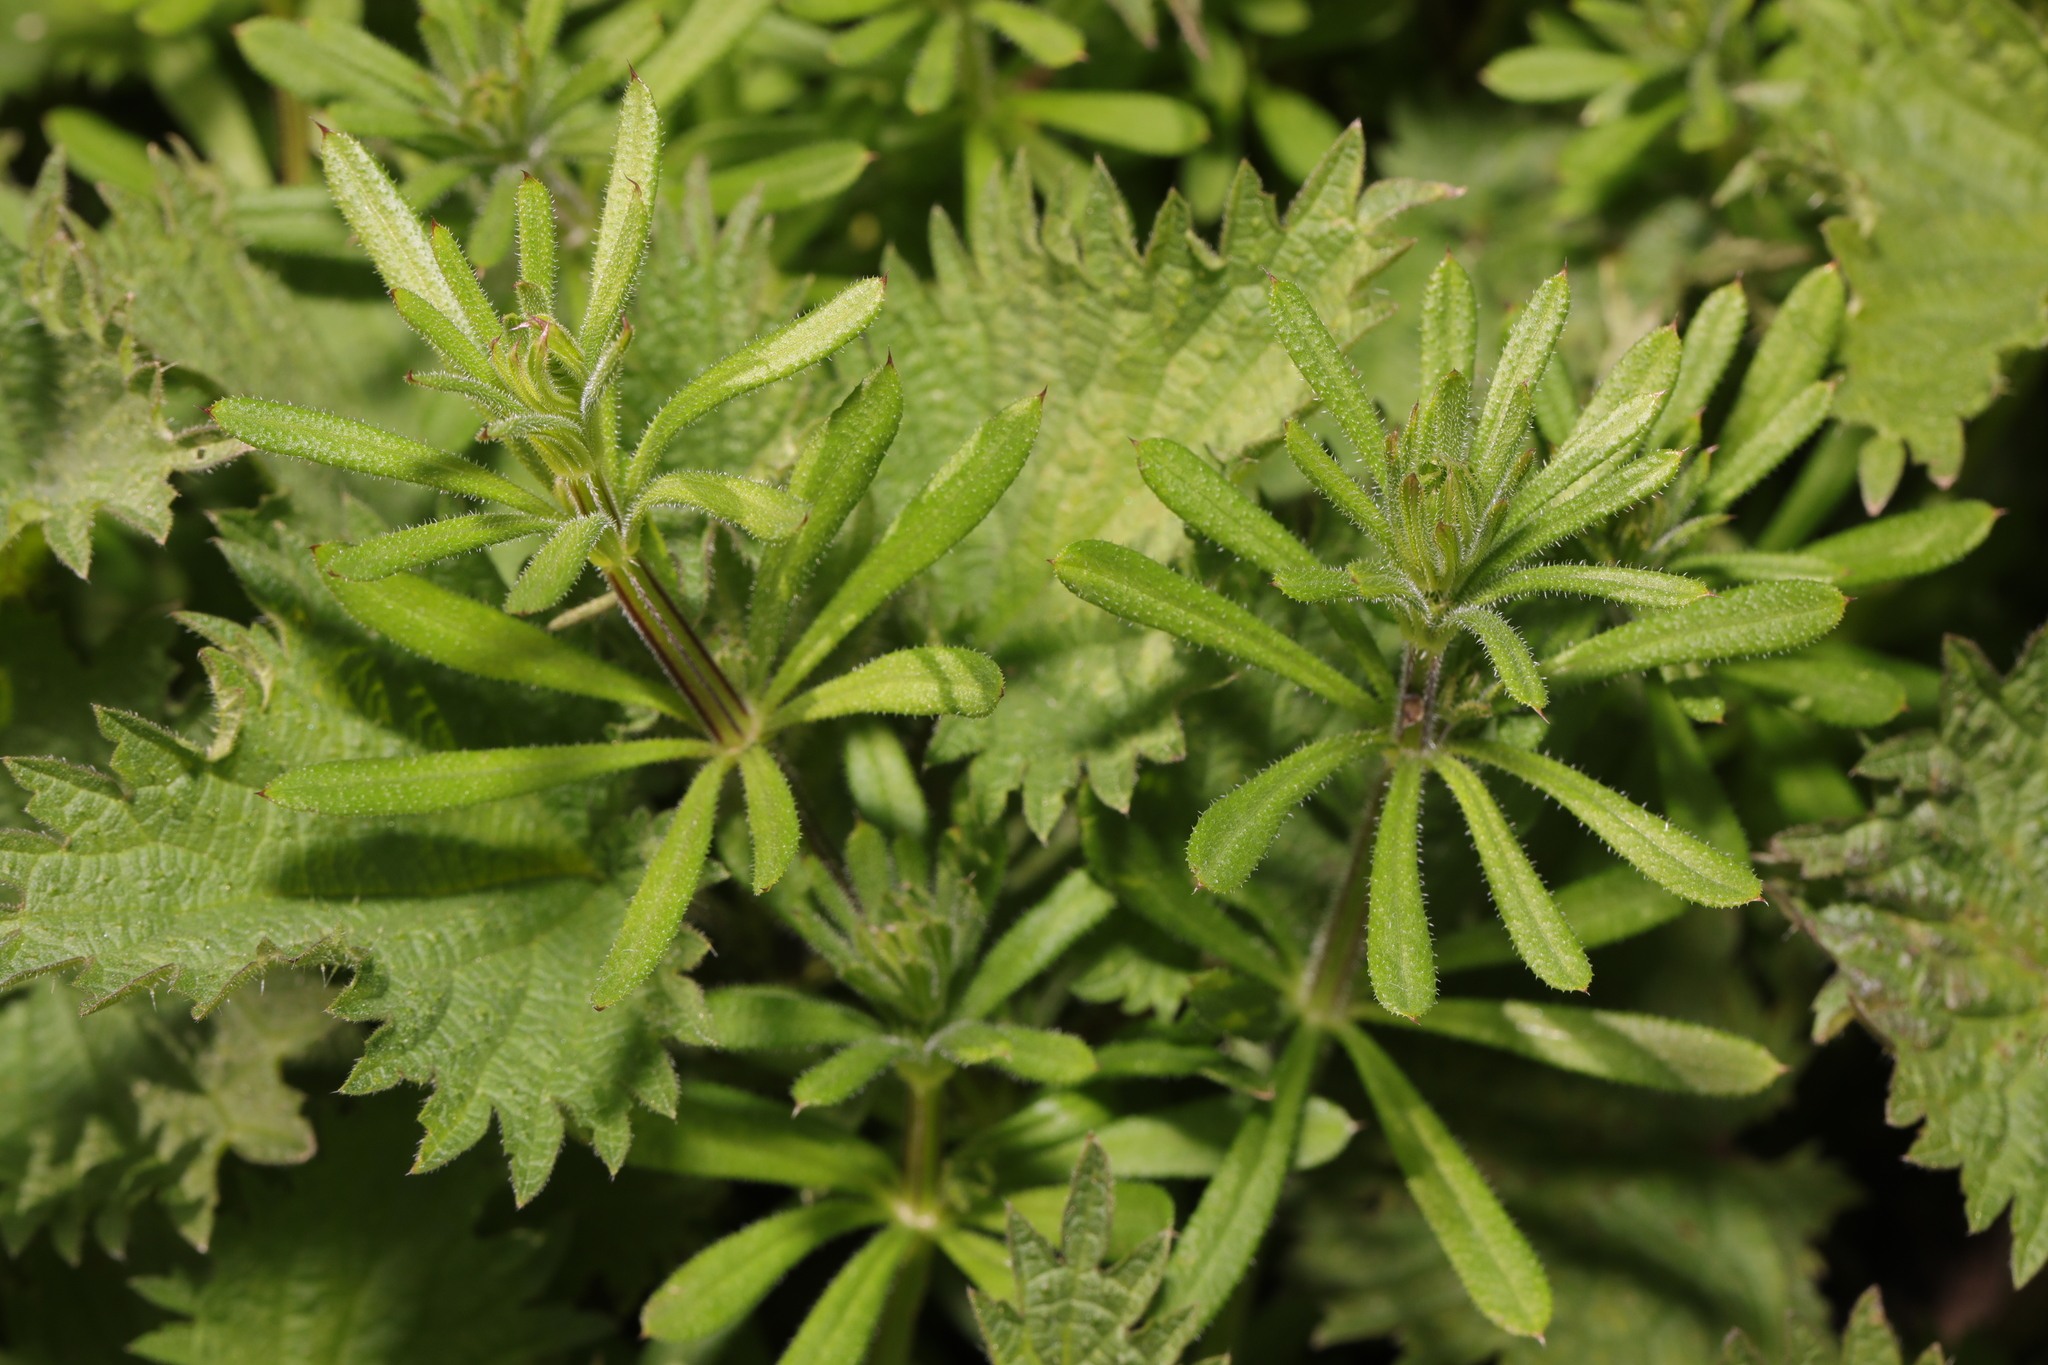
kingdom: Plantae
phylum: Tracheophyta
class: Magnoliopsida
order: Gentianales
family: Rubiaceae
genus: Galium
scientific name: Galium aparine
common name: Cleavers
